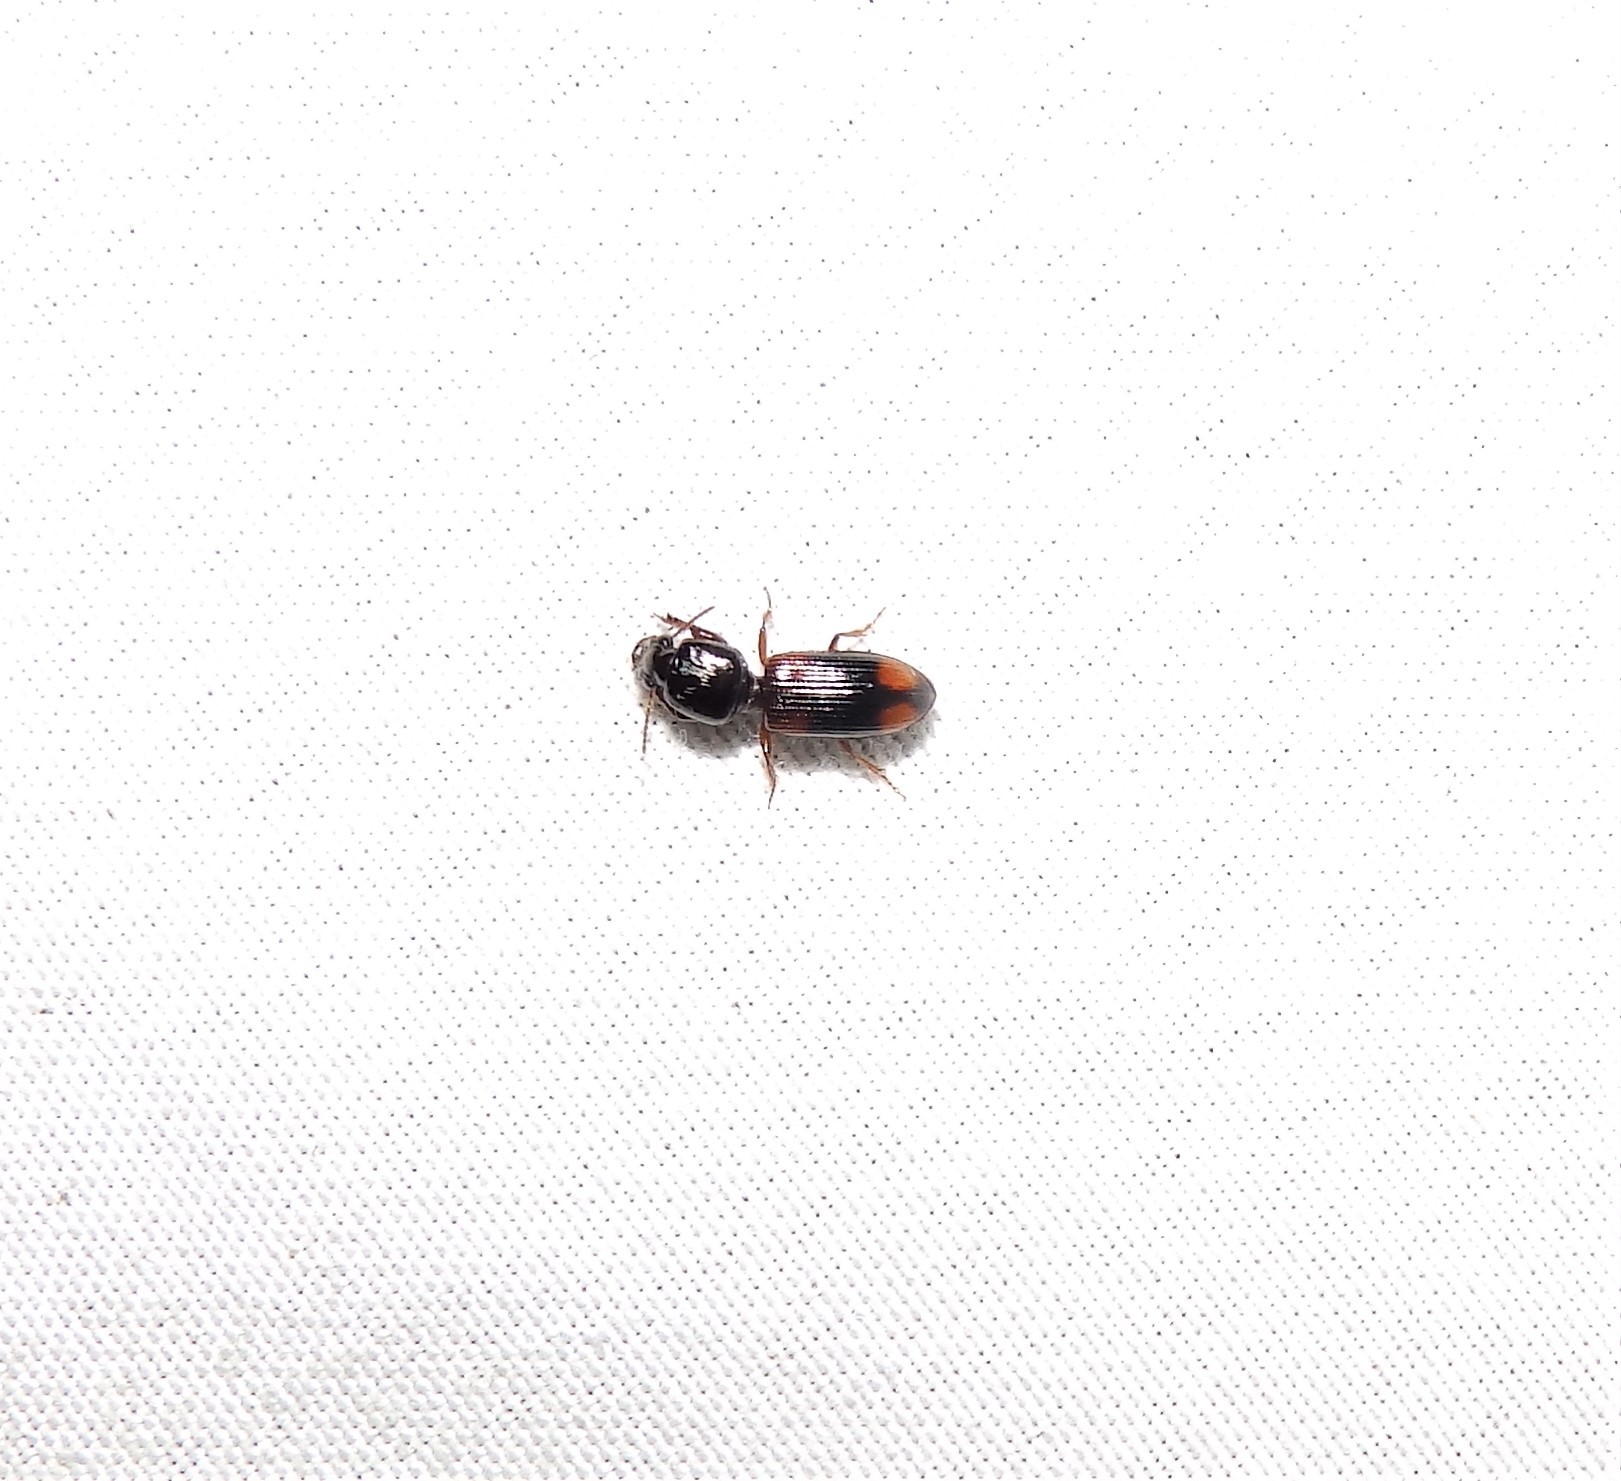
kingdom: Animalia
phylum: Arthropoda
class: Insecta
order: Coleoptera
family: Carabidae
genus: Clivina
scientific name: Clivina bipustulata
